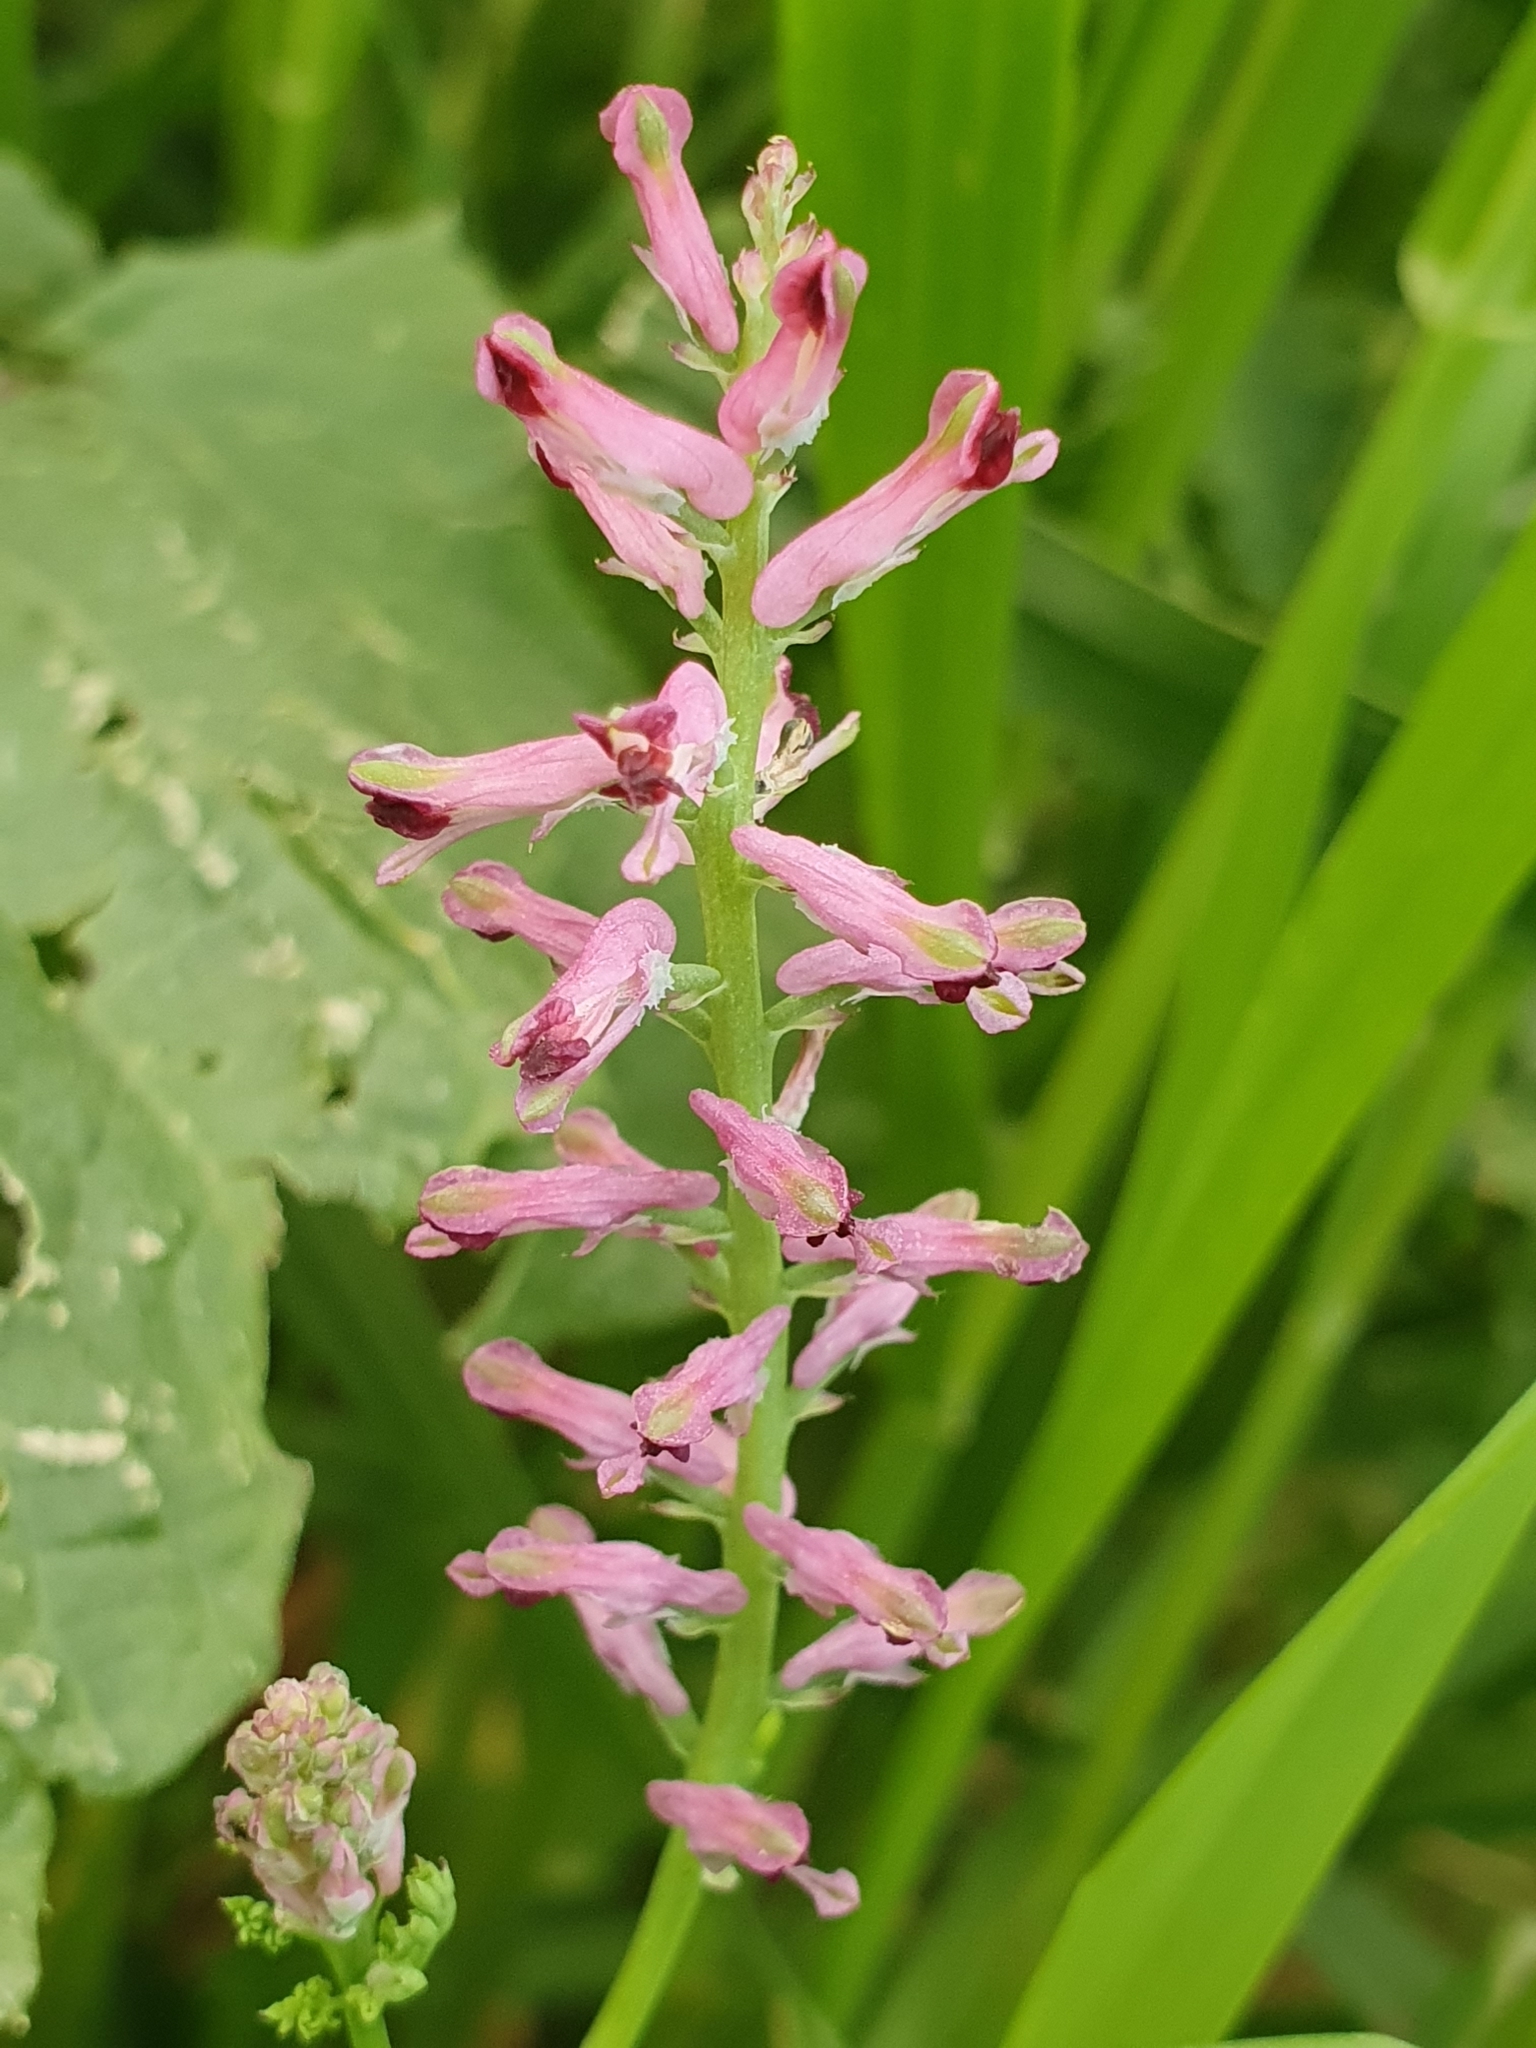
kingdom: Plantae
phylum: Tracheophyta
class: Magnoliopsida
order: Ranunculales
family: Papaveraceae
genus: Fumaria
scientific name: Fumaria officinalis
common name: Common fumitory
